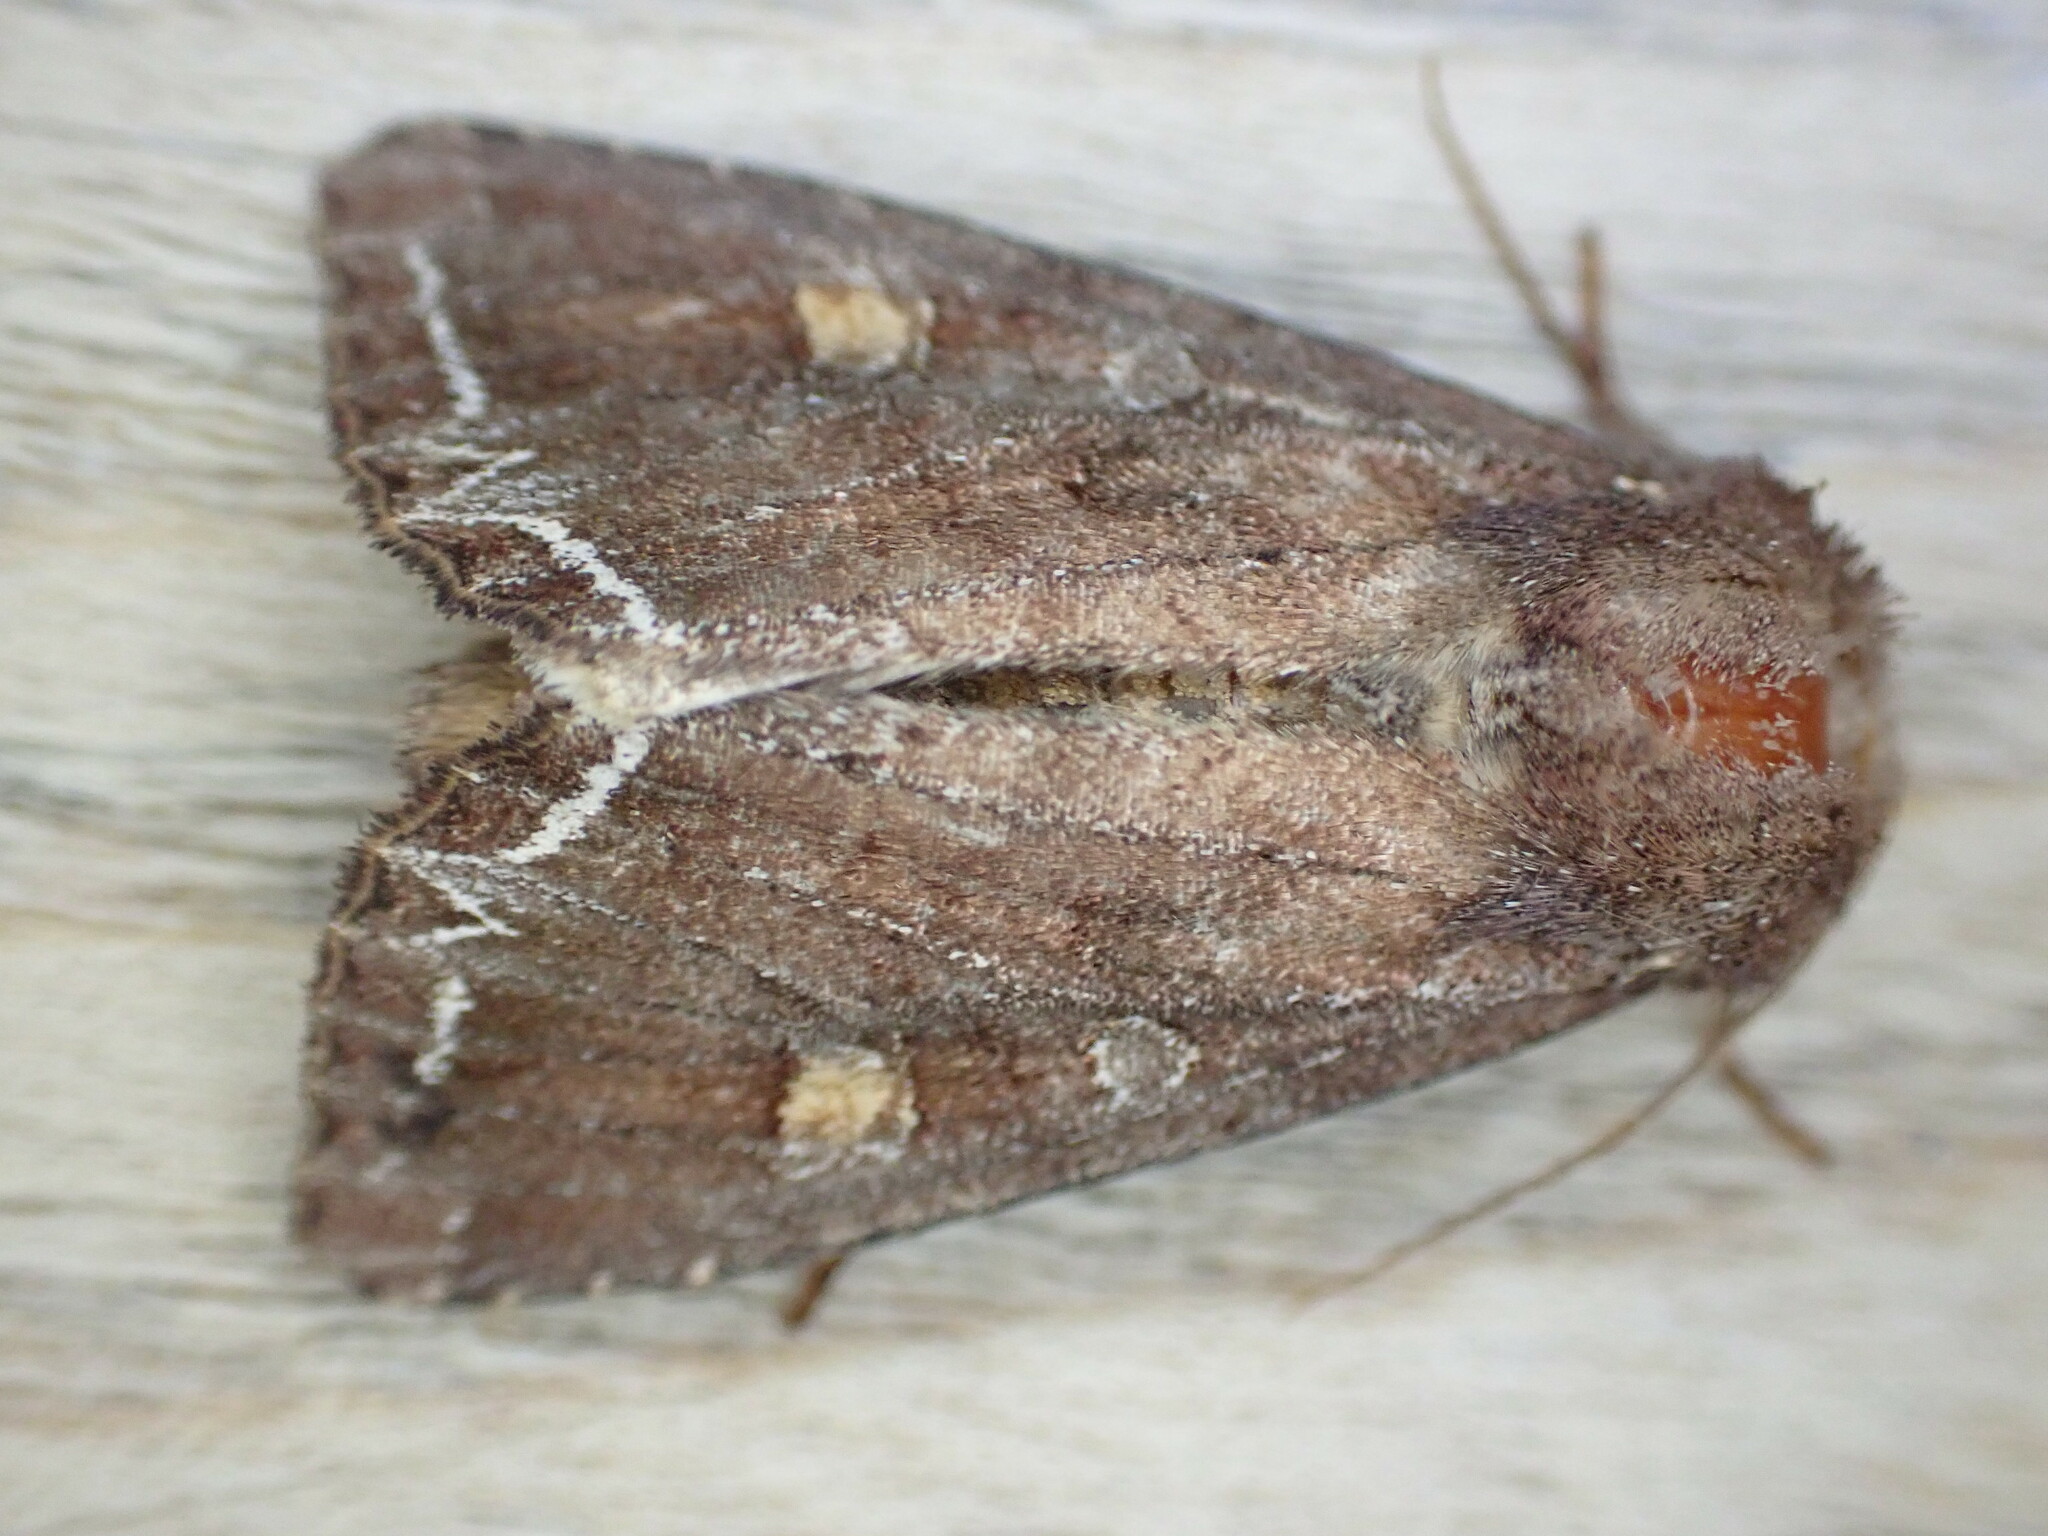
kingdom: Animalia
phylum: Arthropoda
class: Insecta
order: Lepidoptera
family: Noctuidae
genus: Lacanobia
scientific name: Lacanobia oleracea
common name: Bright-line brown-eye
